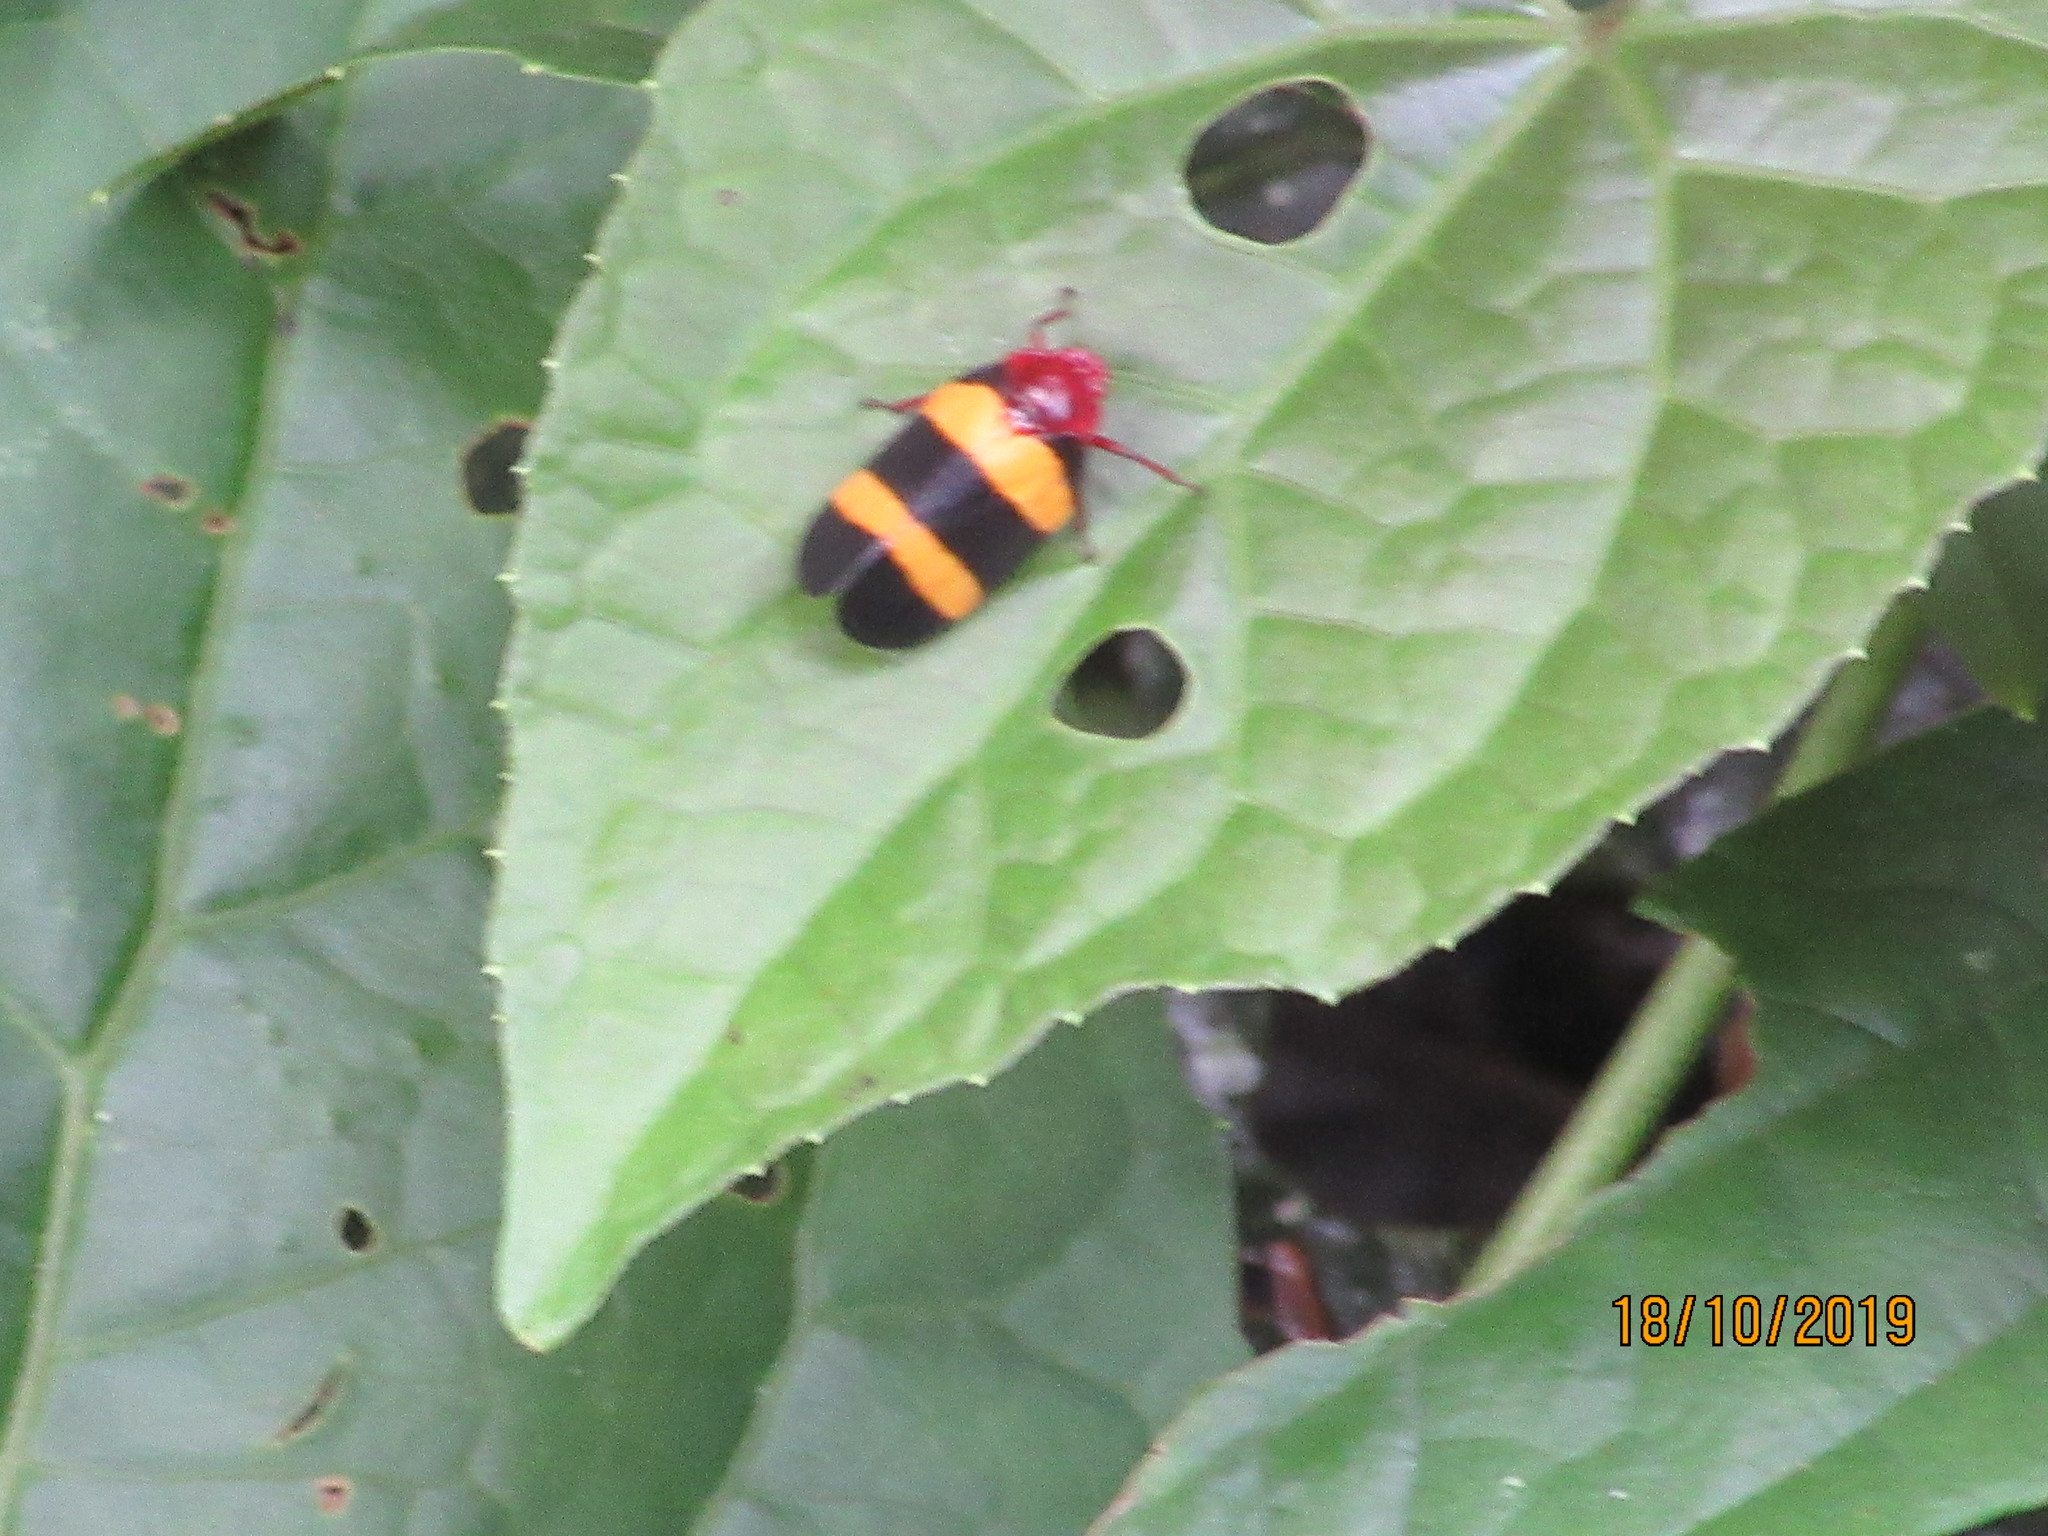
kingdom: Animalia
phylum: Arthropoda
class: Insecta
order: Hemiptera
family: Cercopidae
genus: Sphenorhina
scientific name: Sphenorhina rubra
